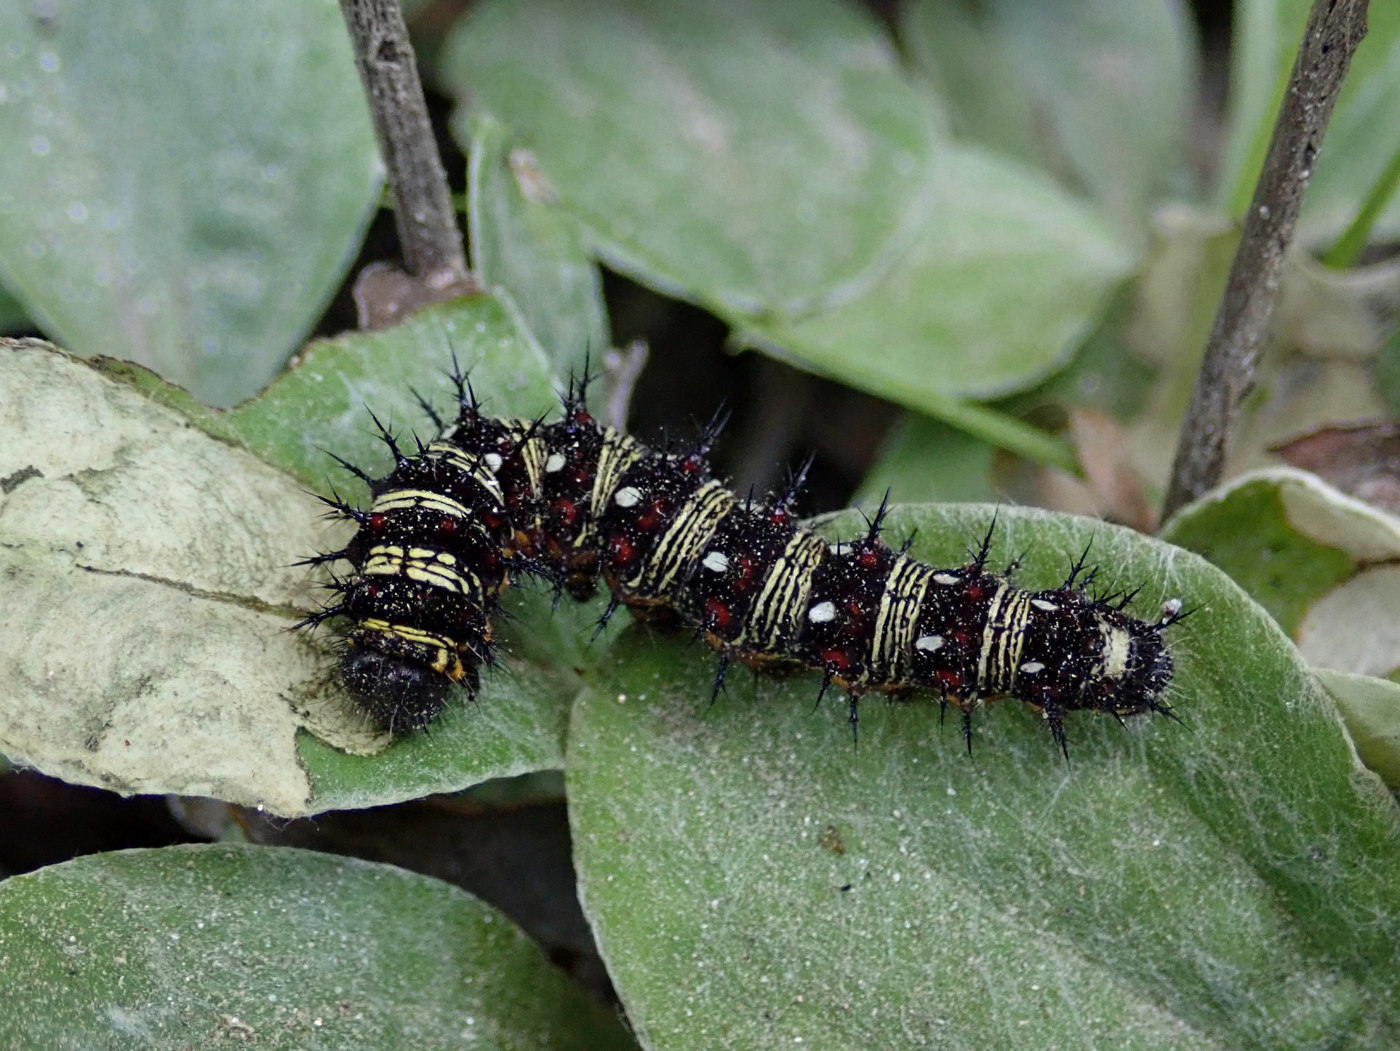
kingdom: Animalia
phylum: Arthropoda
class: Insecta
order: Lepidoptera
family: Nymphalidae
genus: Vanessa
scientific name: Vanessa virginiensis
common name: American lady
